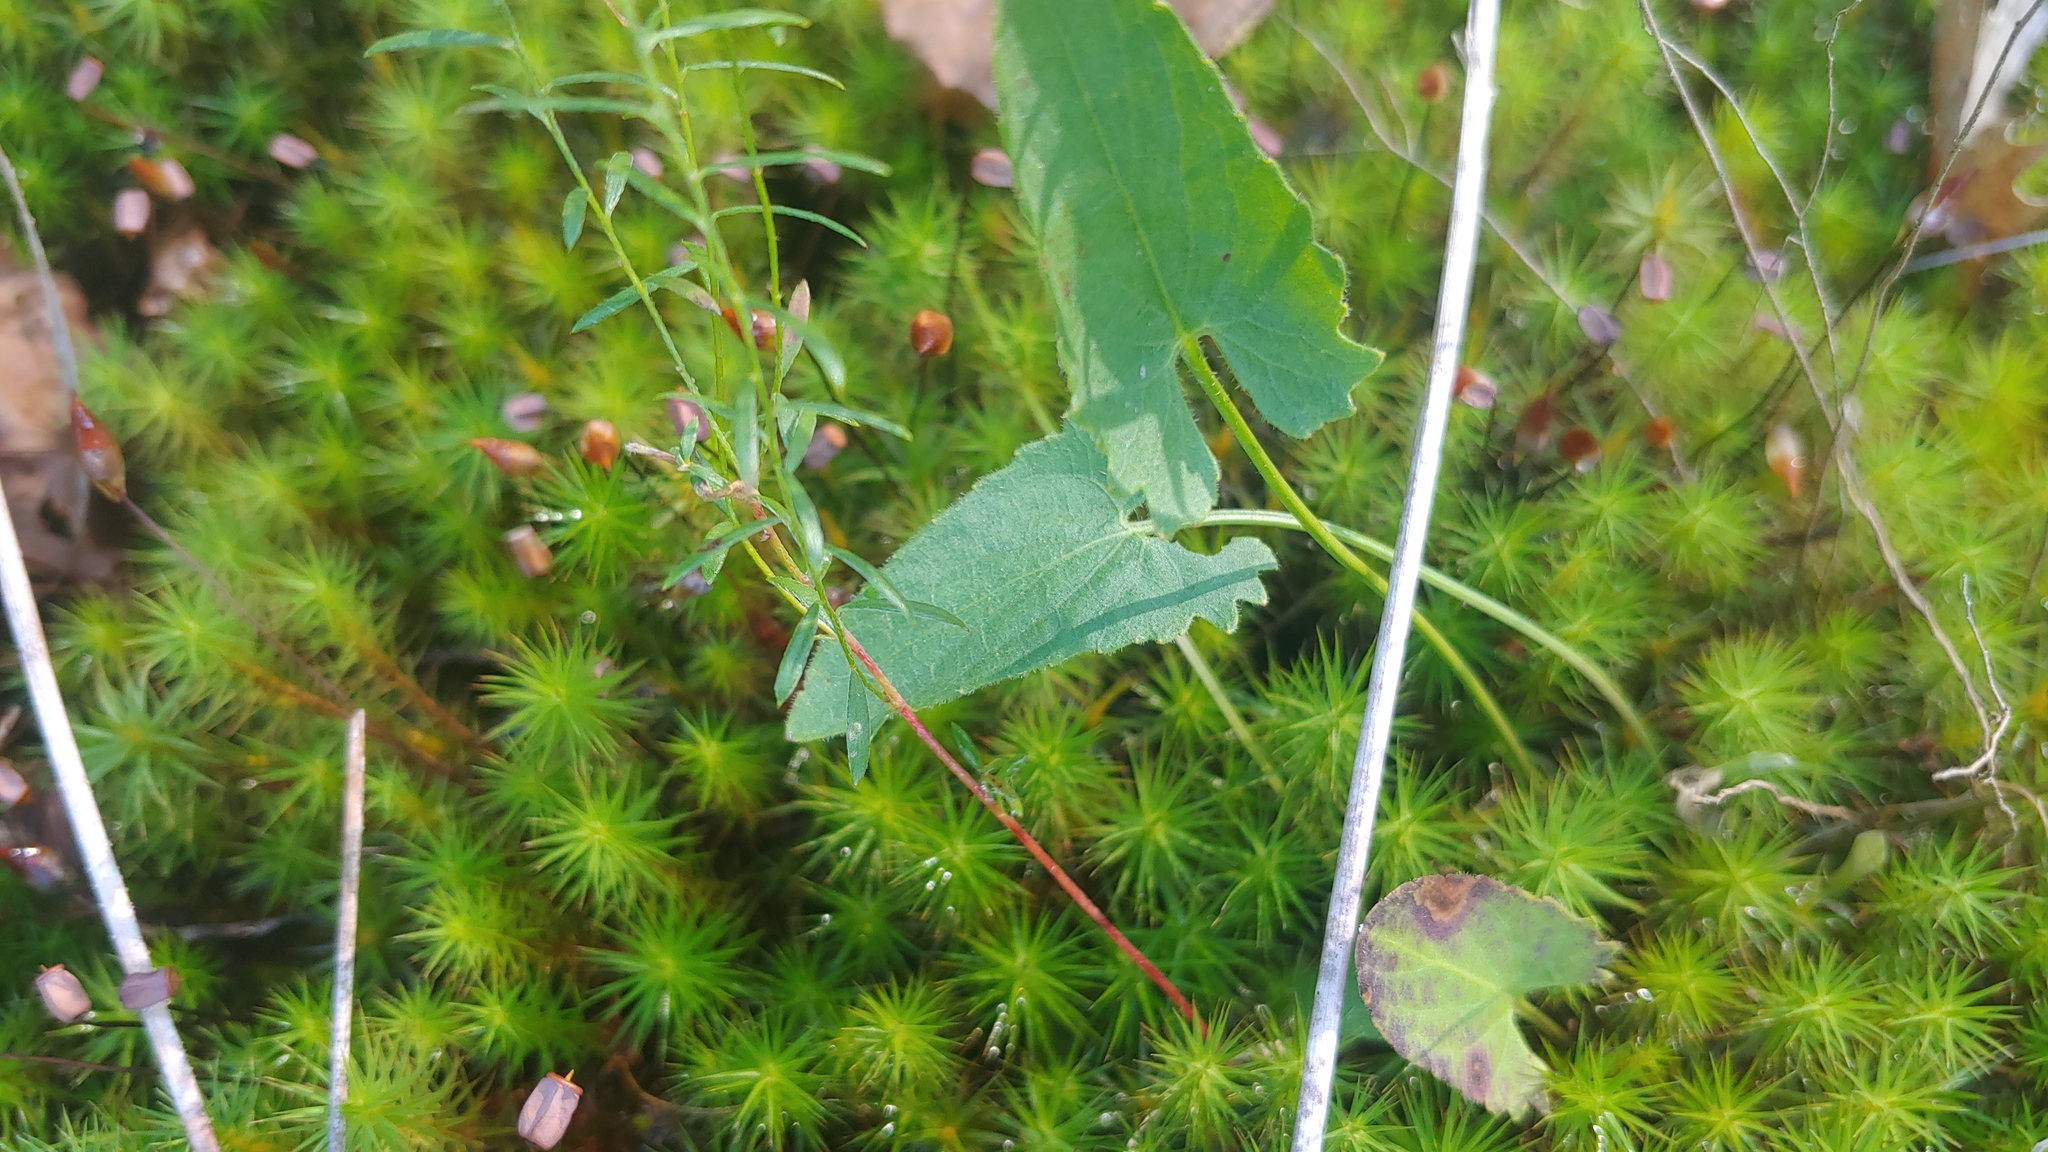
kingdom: Plantae
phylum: Tracheophyta
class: Magnoliopsida
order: Malpighiales
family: Violaceae
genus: Viola
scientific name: Viola sagittata
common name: Arrowhead violet
